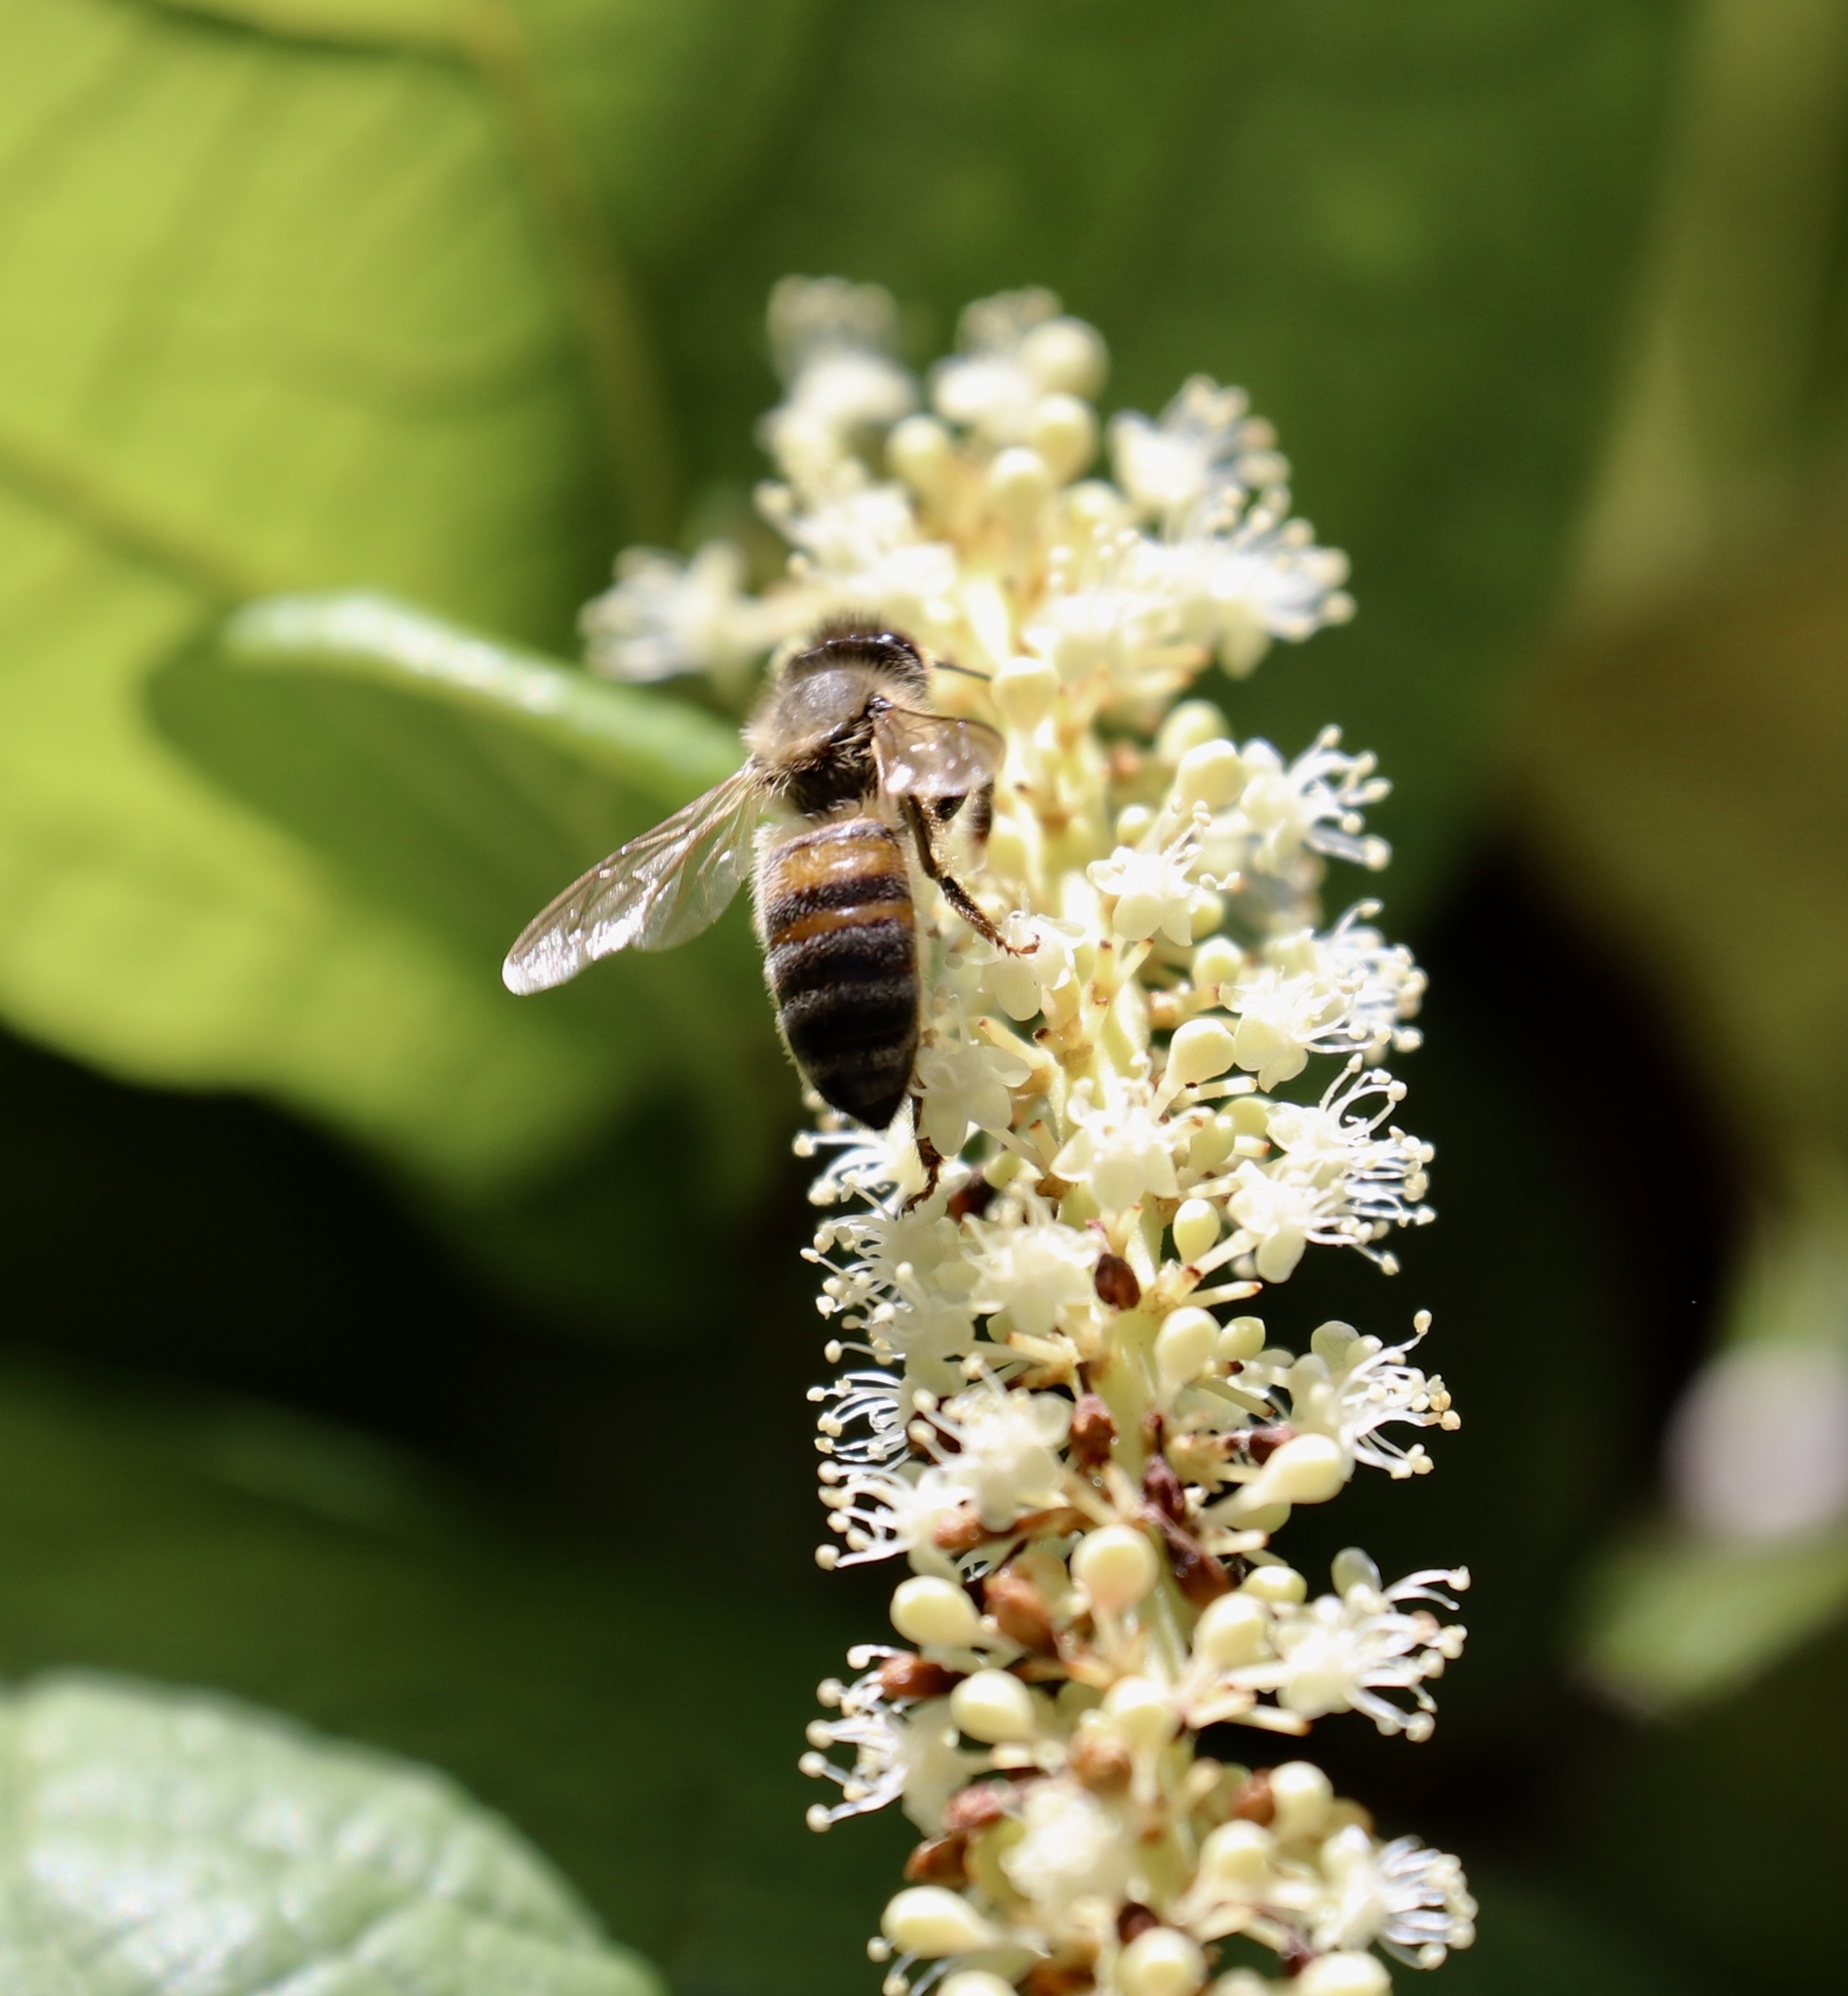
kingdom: Animalia
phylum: Arthropoda
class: Insecta
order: Hymenoptera
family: Apidae
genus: Apis
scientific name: Apis mellifera
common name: Honey bee
